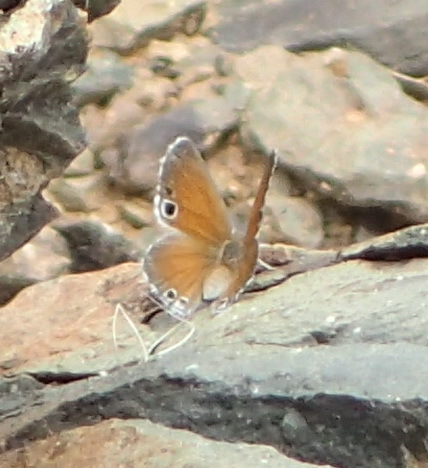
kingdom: Animalia
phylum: Arthropoda
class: Insecta
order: Lepidoptera
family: Lycaenidae
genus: Leptomyrina
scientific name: Leptomyrina lara
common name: Cape black-eye
